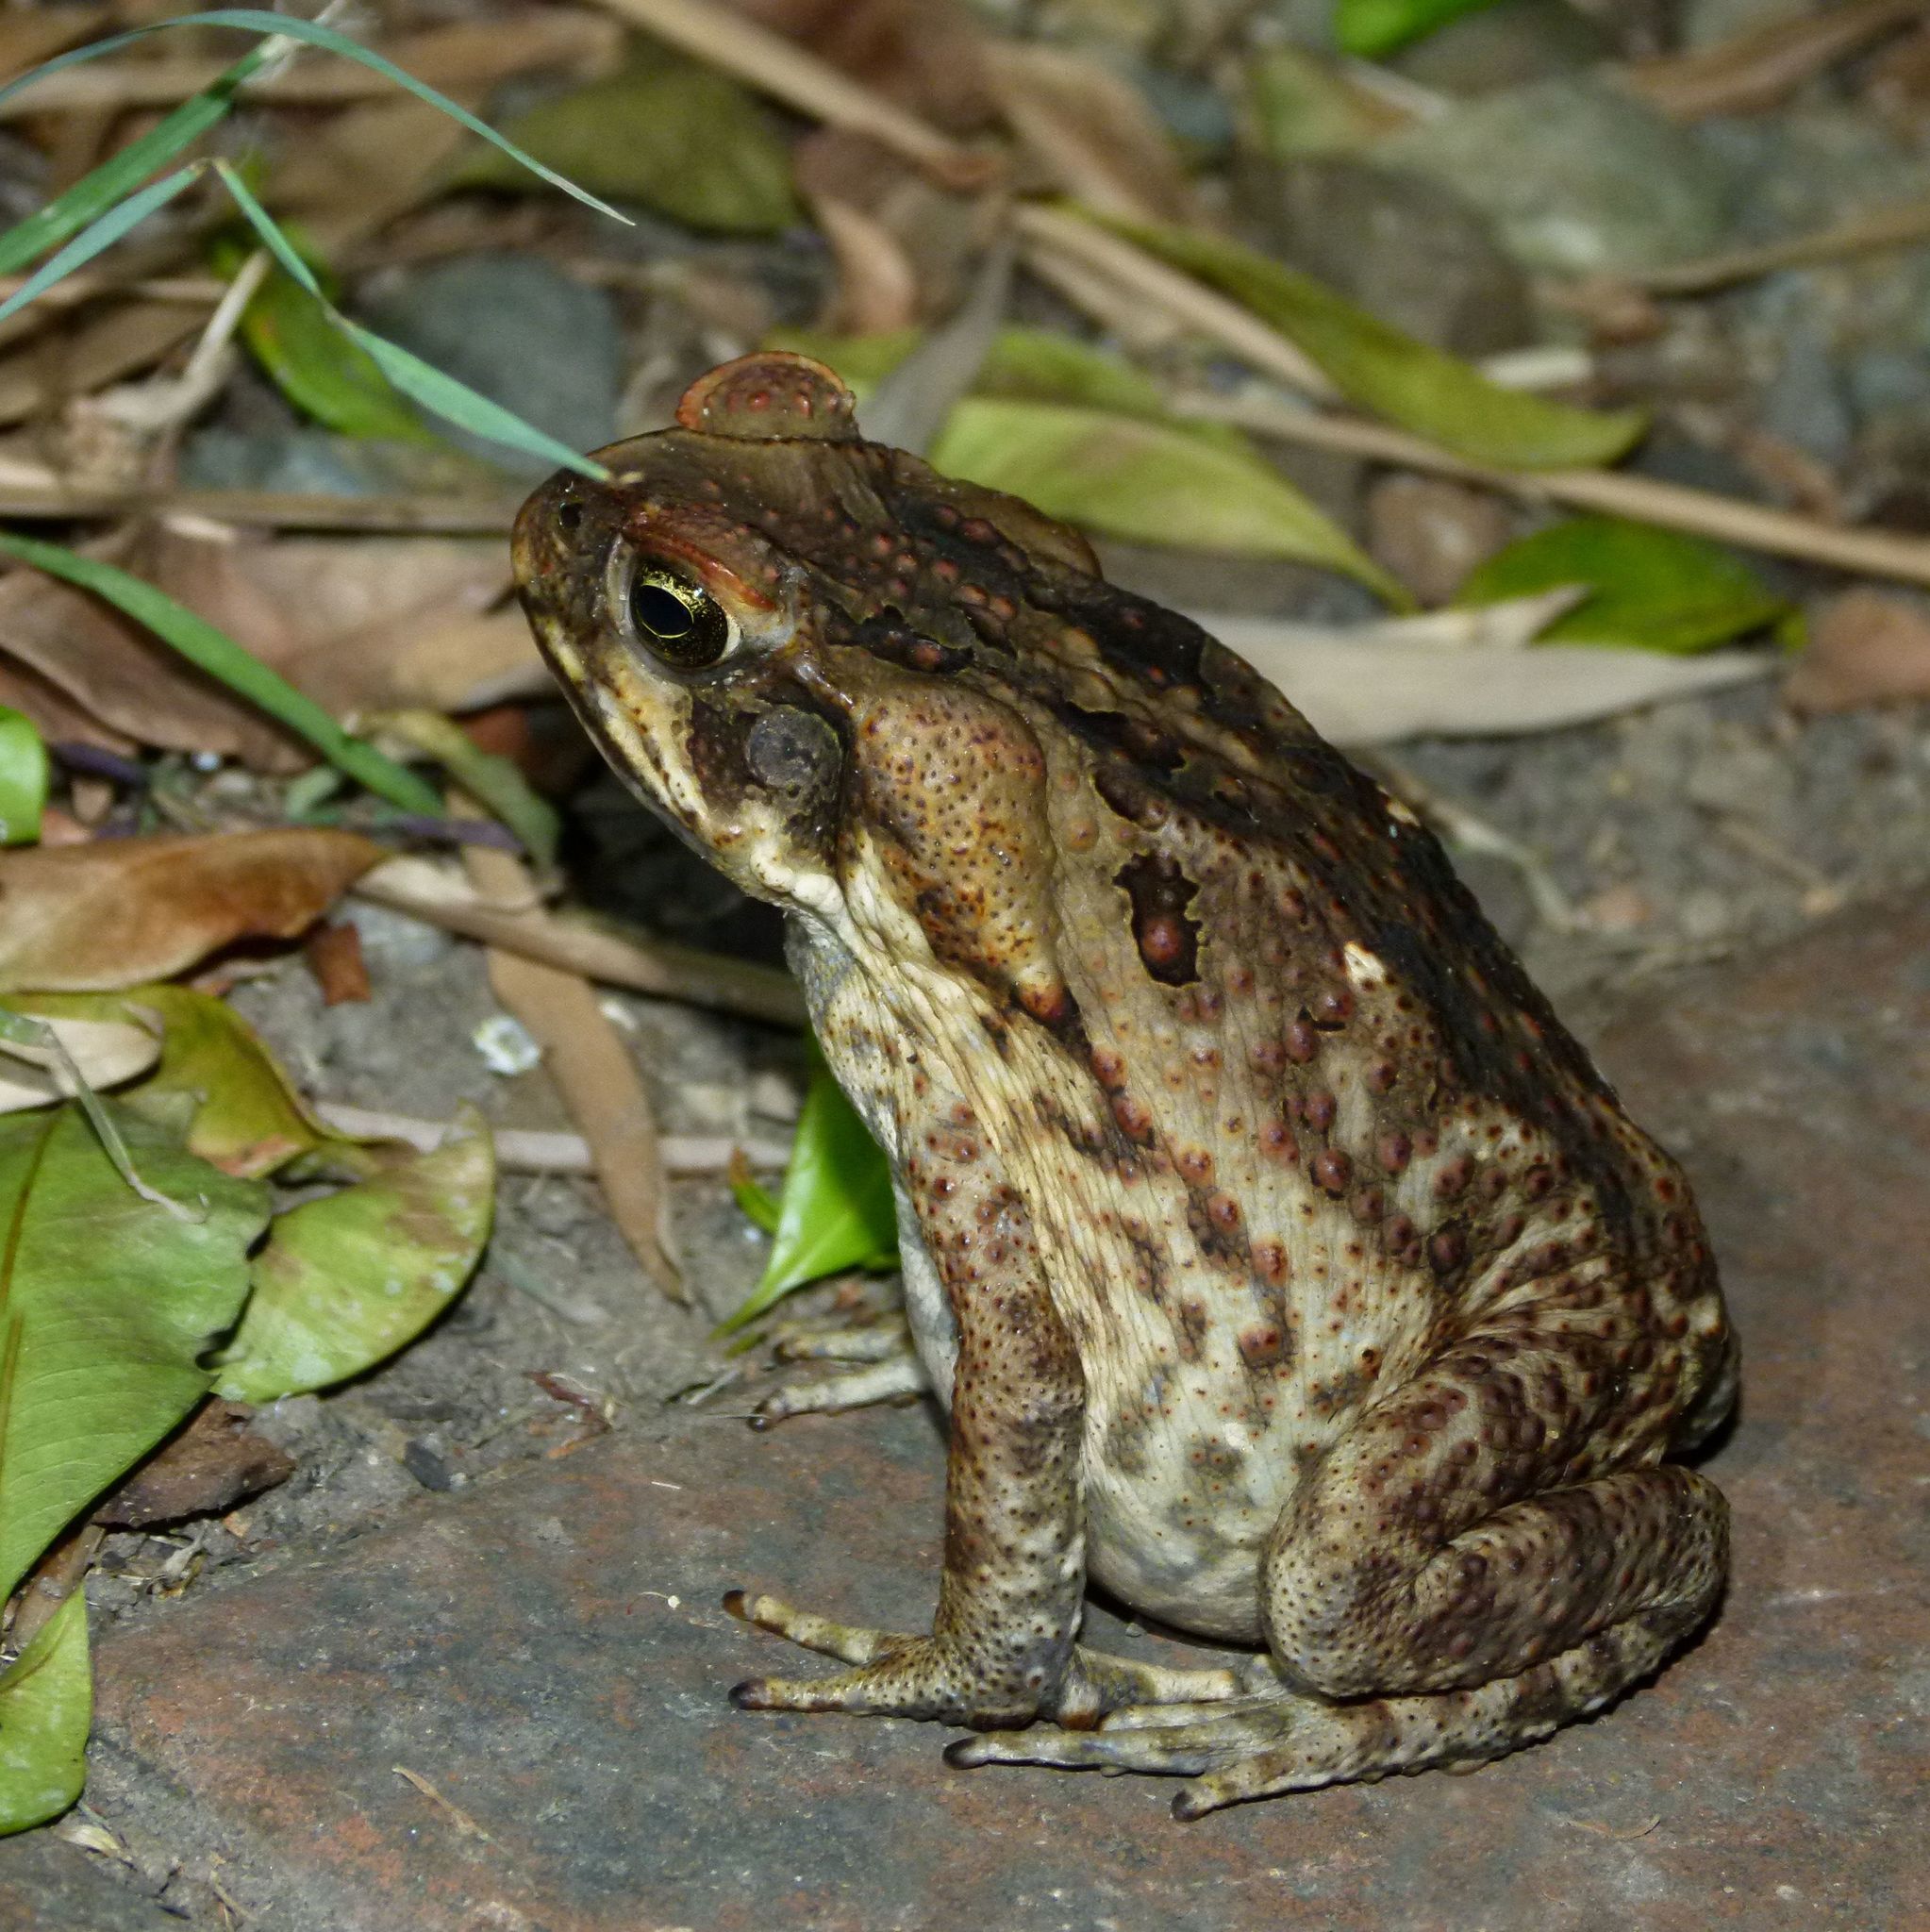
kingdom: Animalia
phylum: Chordata
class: Amphibia
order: Anura
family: Bufonidae
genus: Rhinella
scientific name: Rhinella marina
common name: Cane toad
